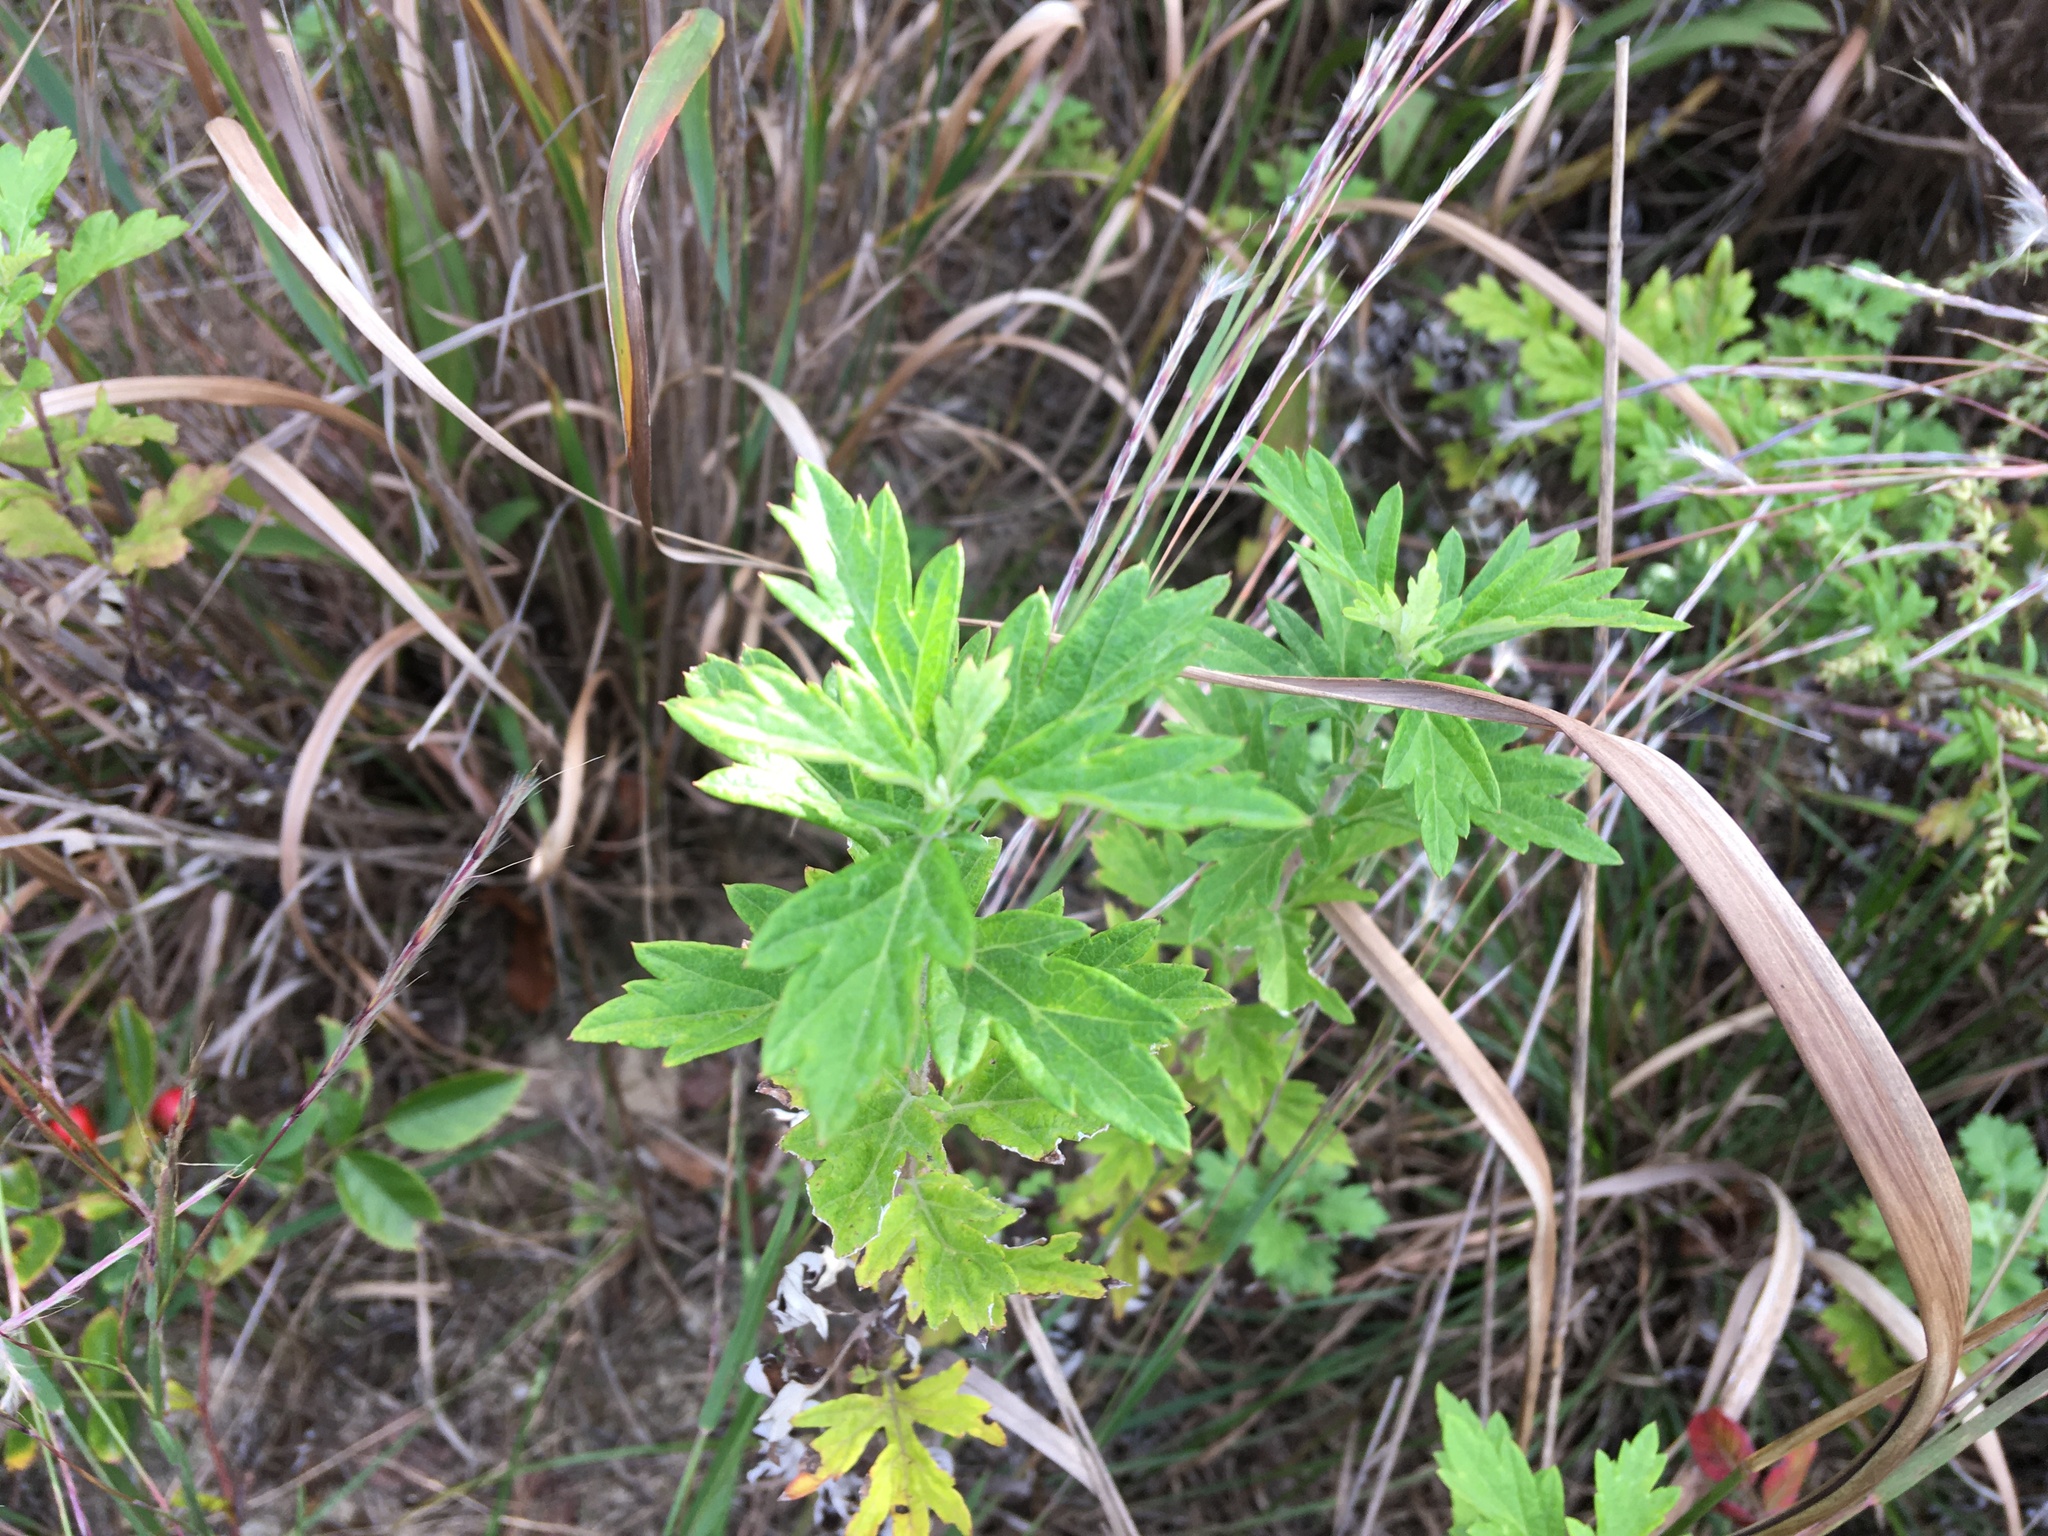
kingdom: Plantae
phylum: Tracheophyta
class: Magnoliopsida
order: Asterales
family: Asteraceae
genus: Artemisia
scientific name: Artemisia vulgaris
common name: Mugwort
